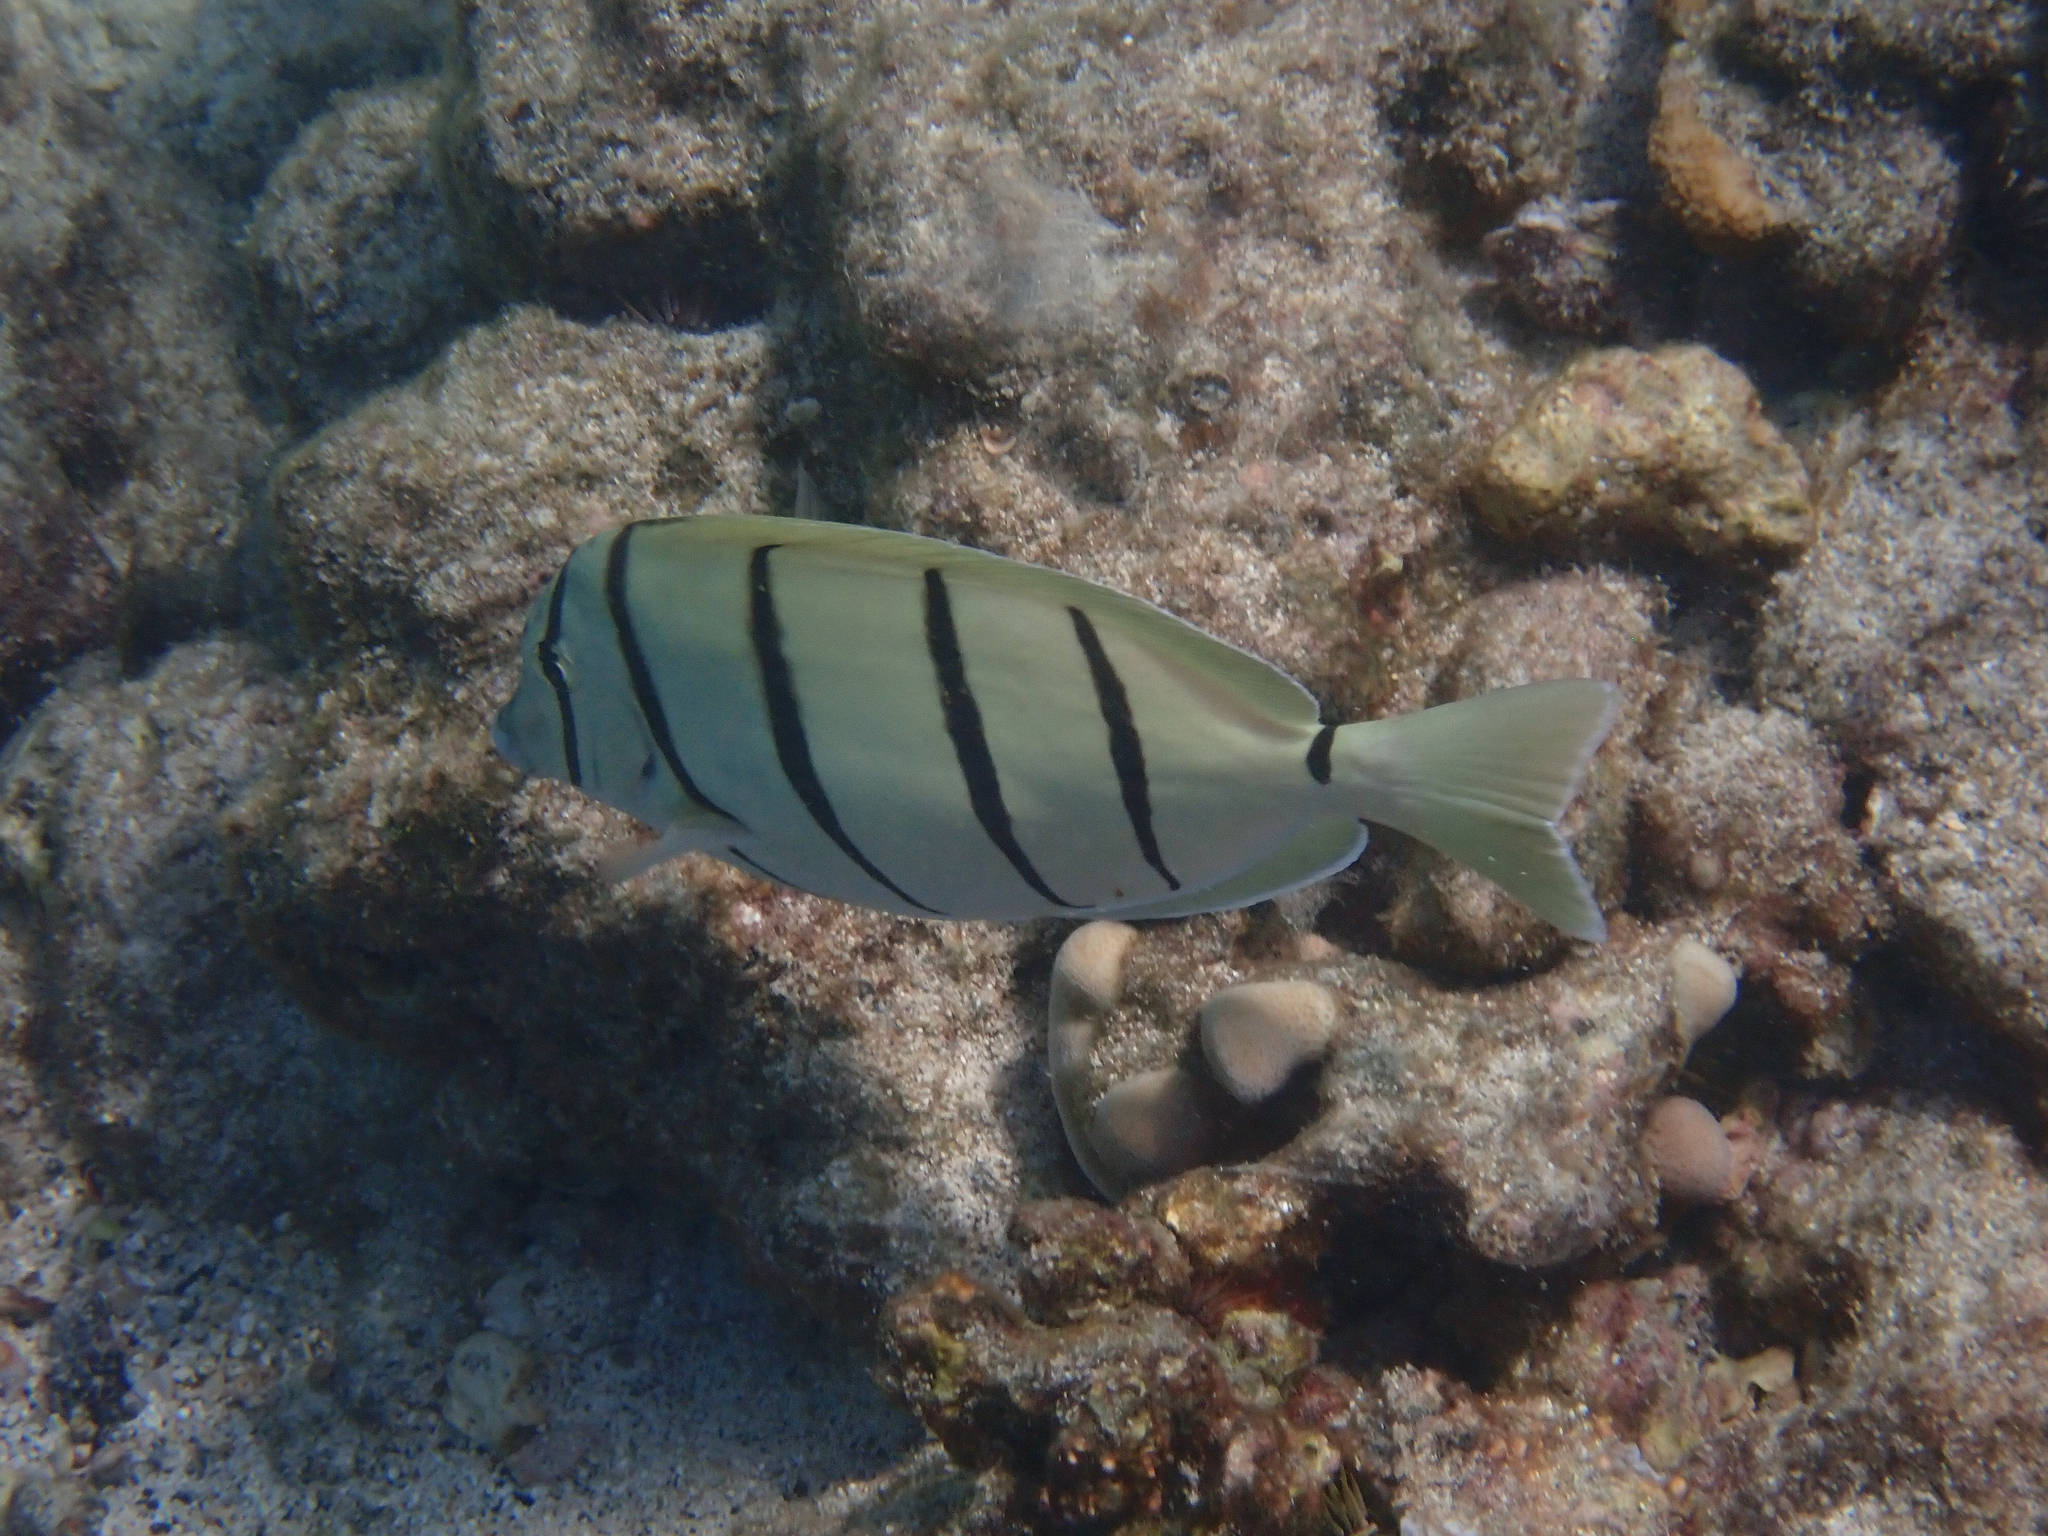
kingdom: Animalia
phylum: Chordata
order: Perciformes
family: Acanthuridae
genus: Acanthurus
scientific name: Acanthurus triostegus
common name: Convict surgeonfish
